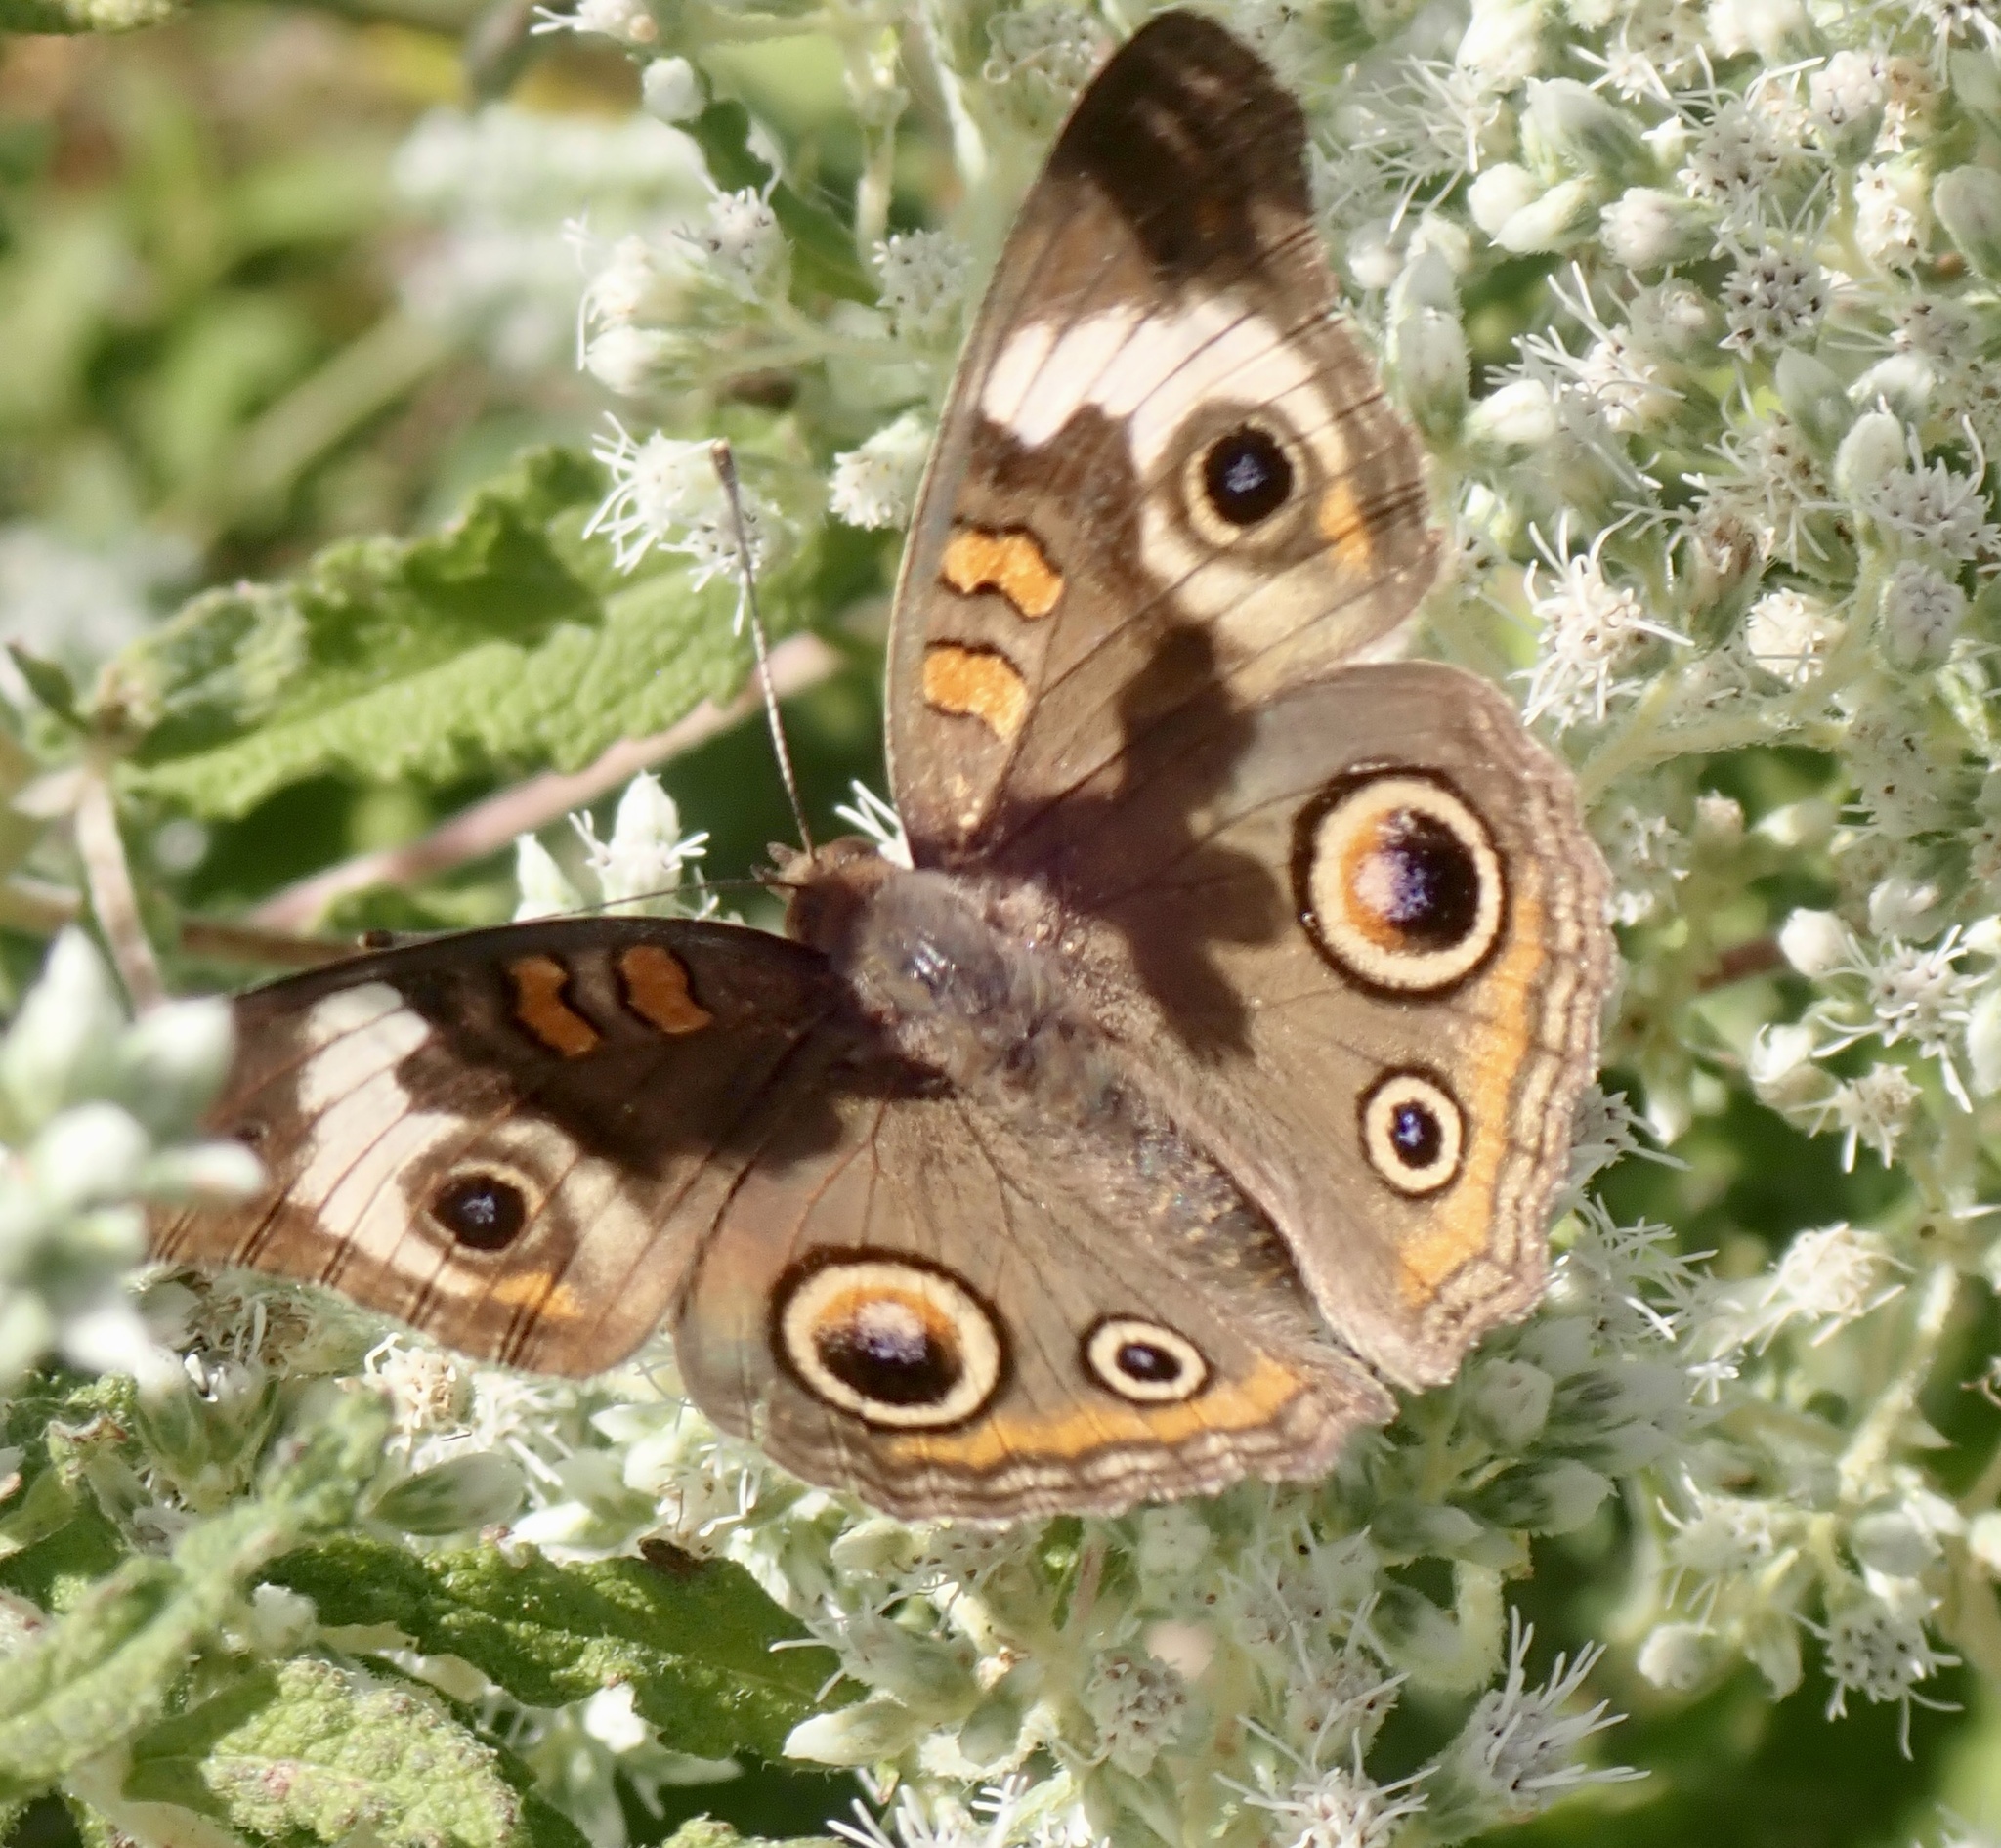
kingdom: Animalia
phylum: Arthropoda
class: Insecta
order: Lepidoptera
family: Nymphalidae
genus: Junonia
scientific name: Junonia coenia
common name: Common buckeye
